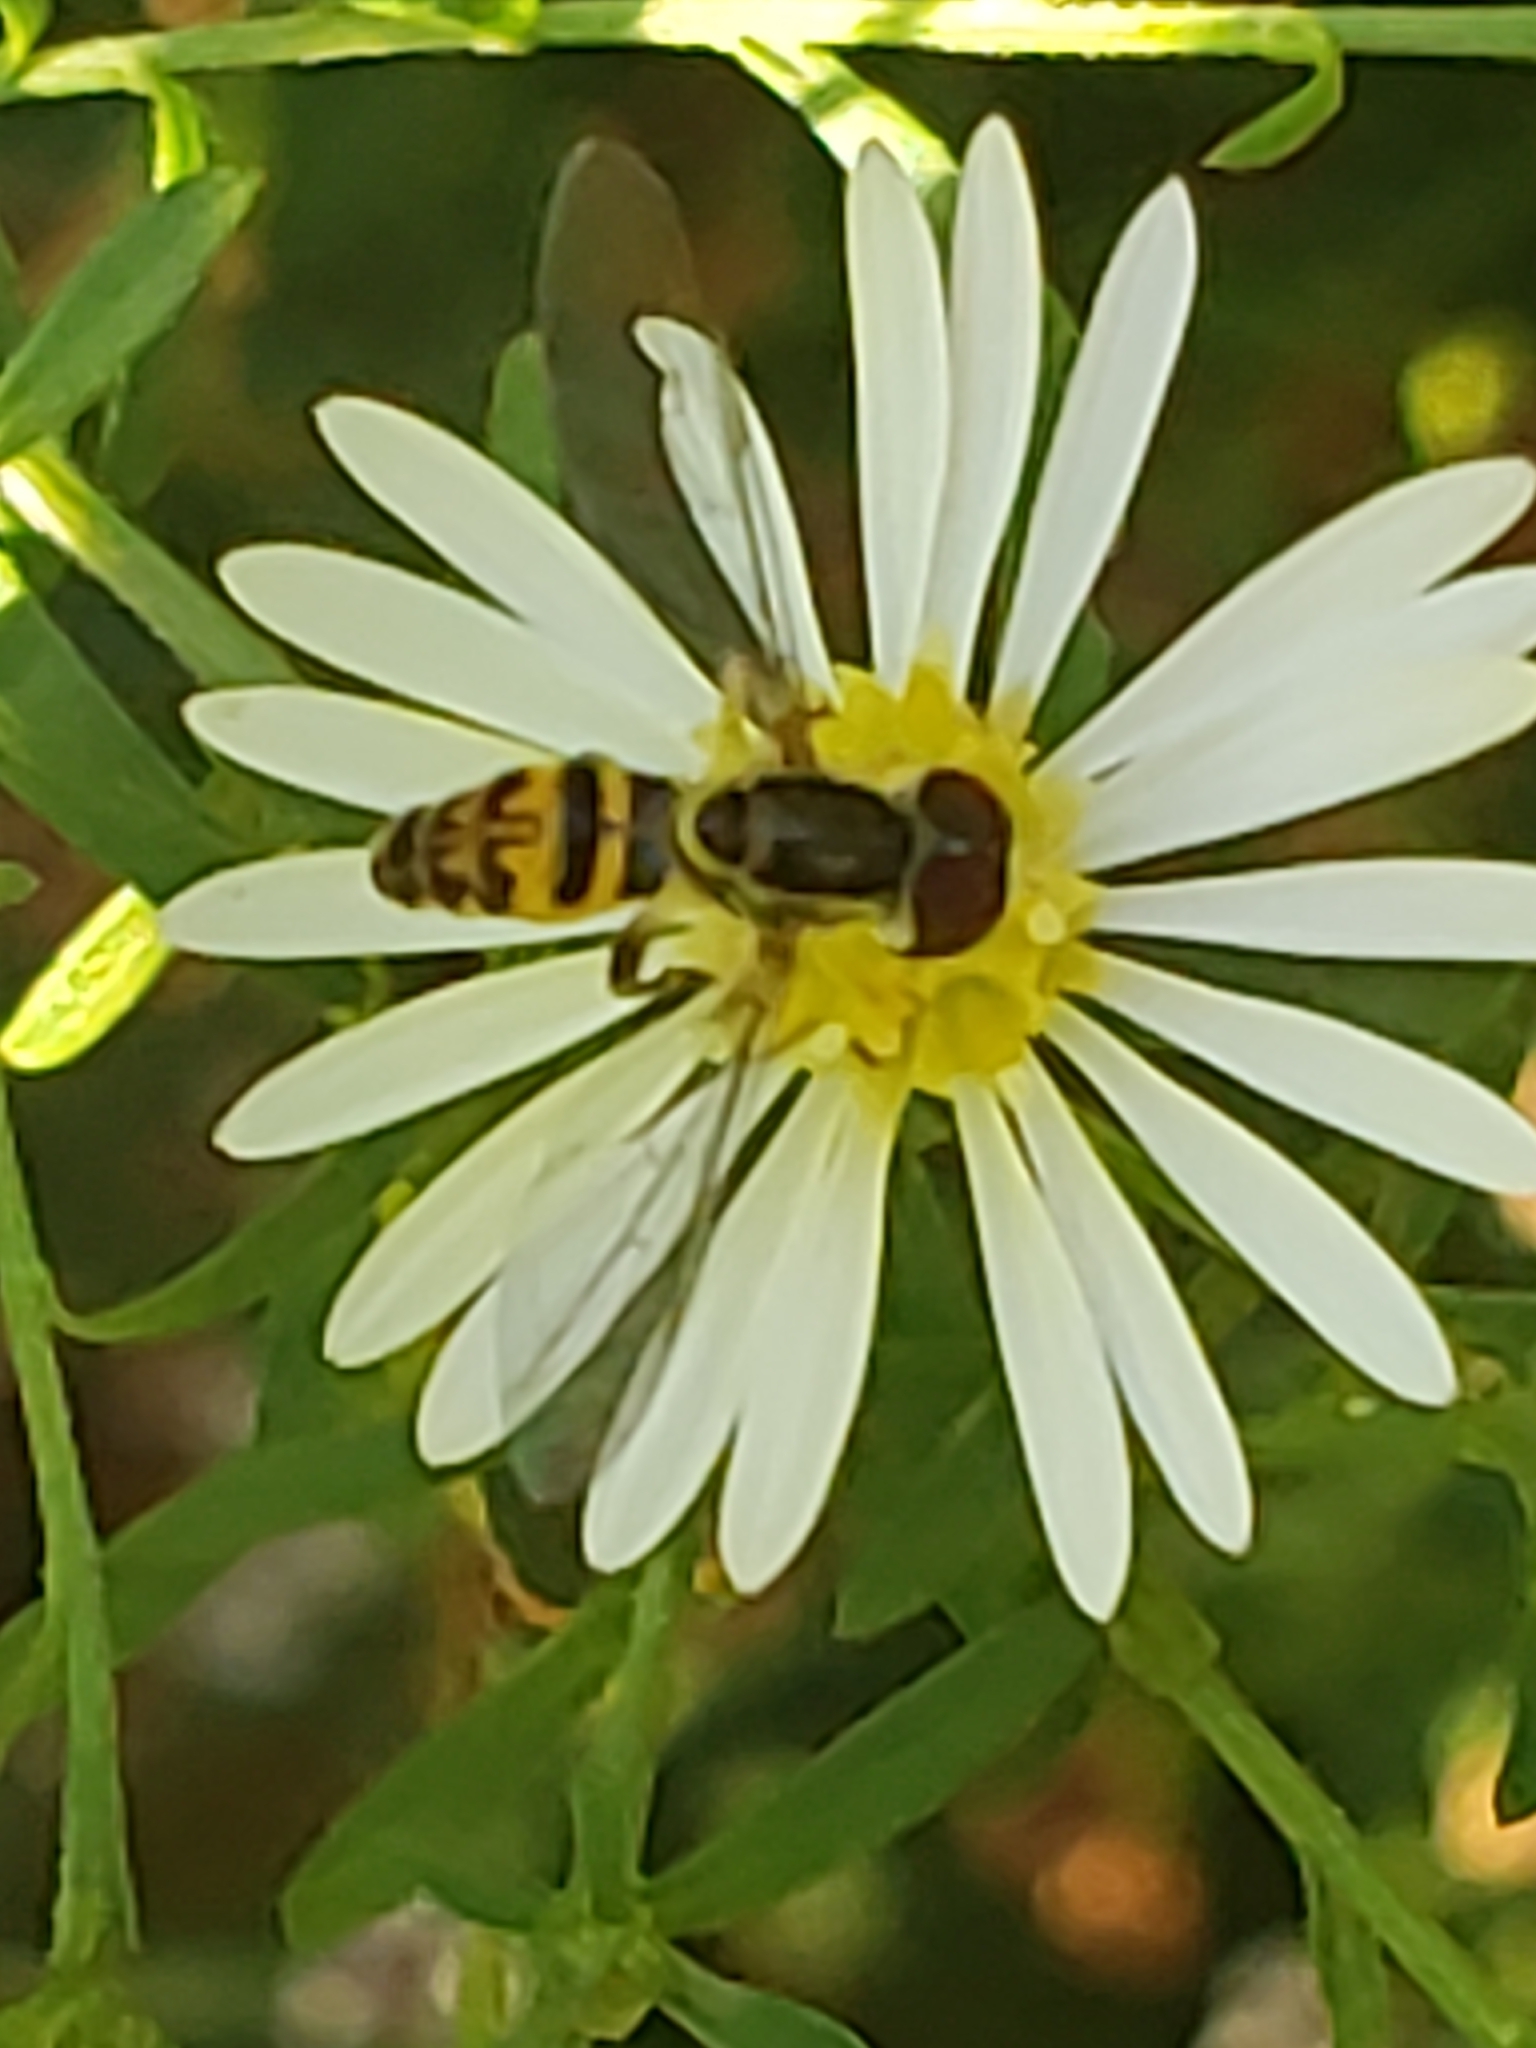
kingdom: Animalia
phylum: Arthropoda
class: Insecta
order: Diptera
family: Syrphidae
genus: Toxomerus
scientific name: Toxomerus geminatus
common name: Eastern calligrapher
